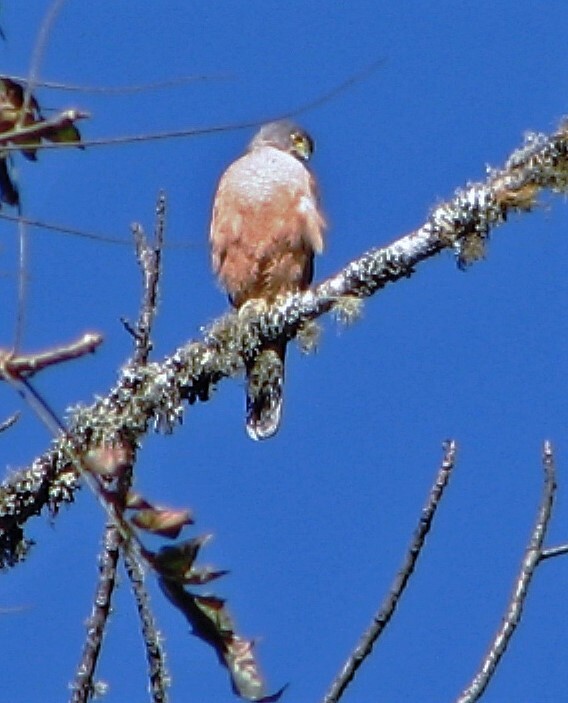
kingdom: Animalia
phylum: Chordata
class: Aves
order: Accipitriformes
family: Accipitridae
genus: Accipiter
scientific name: Accipiter striatus
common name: Sharp-shinned hawk
